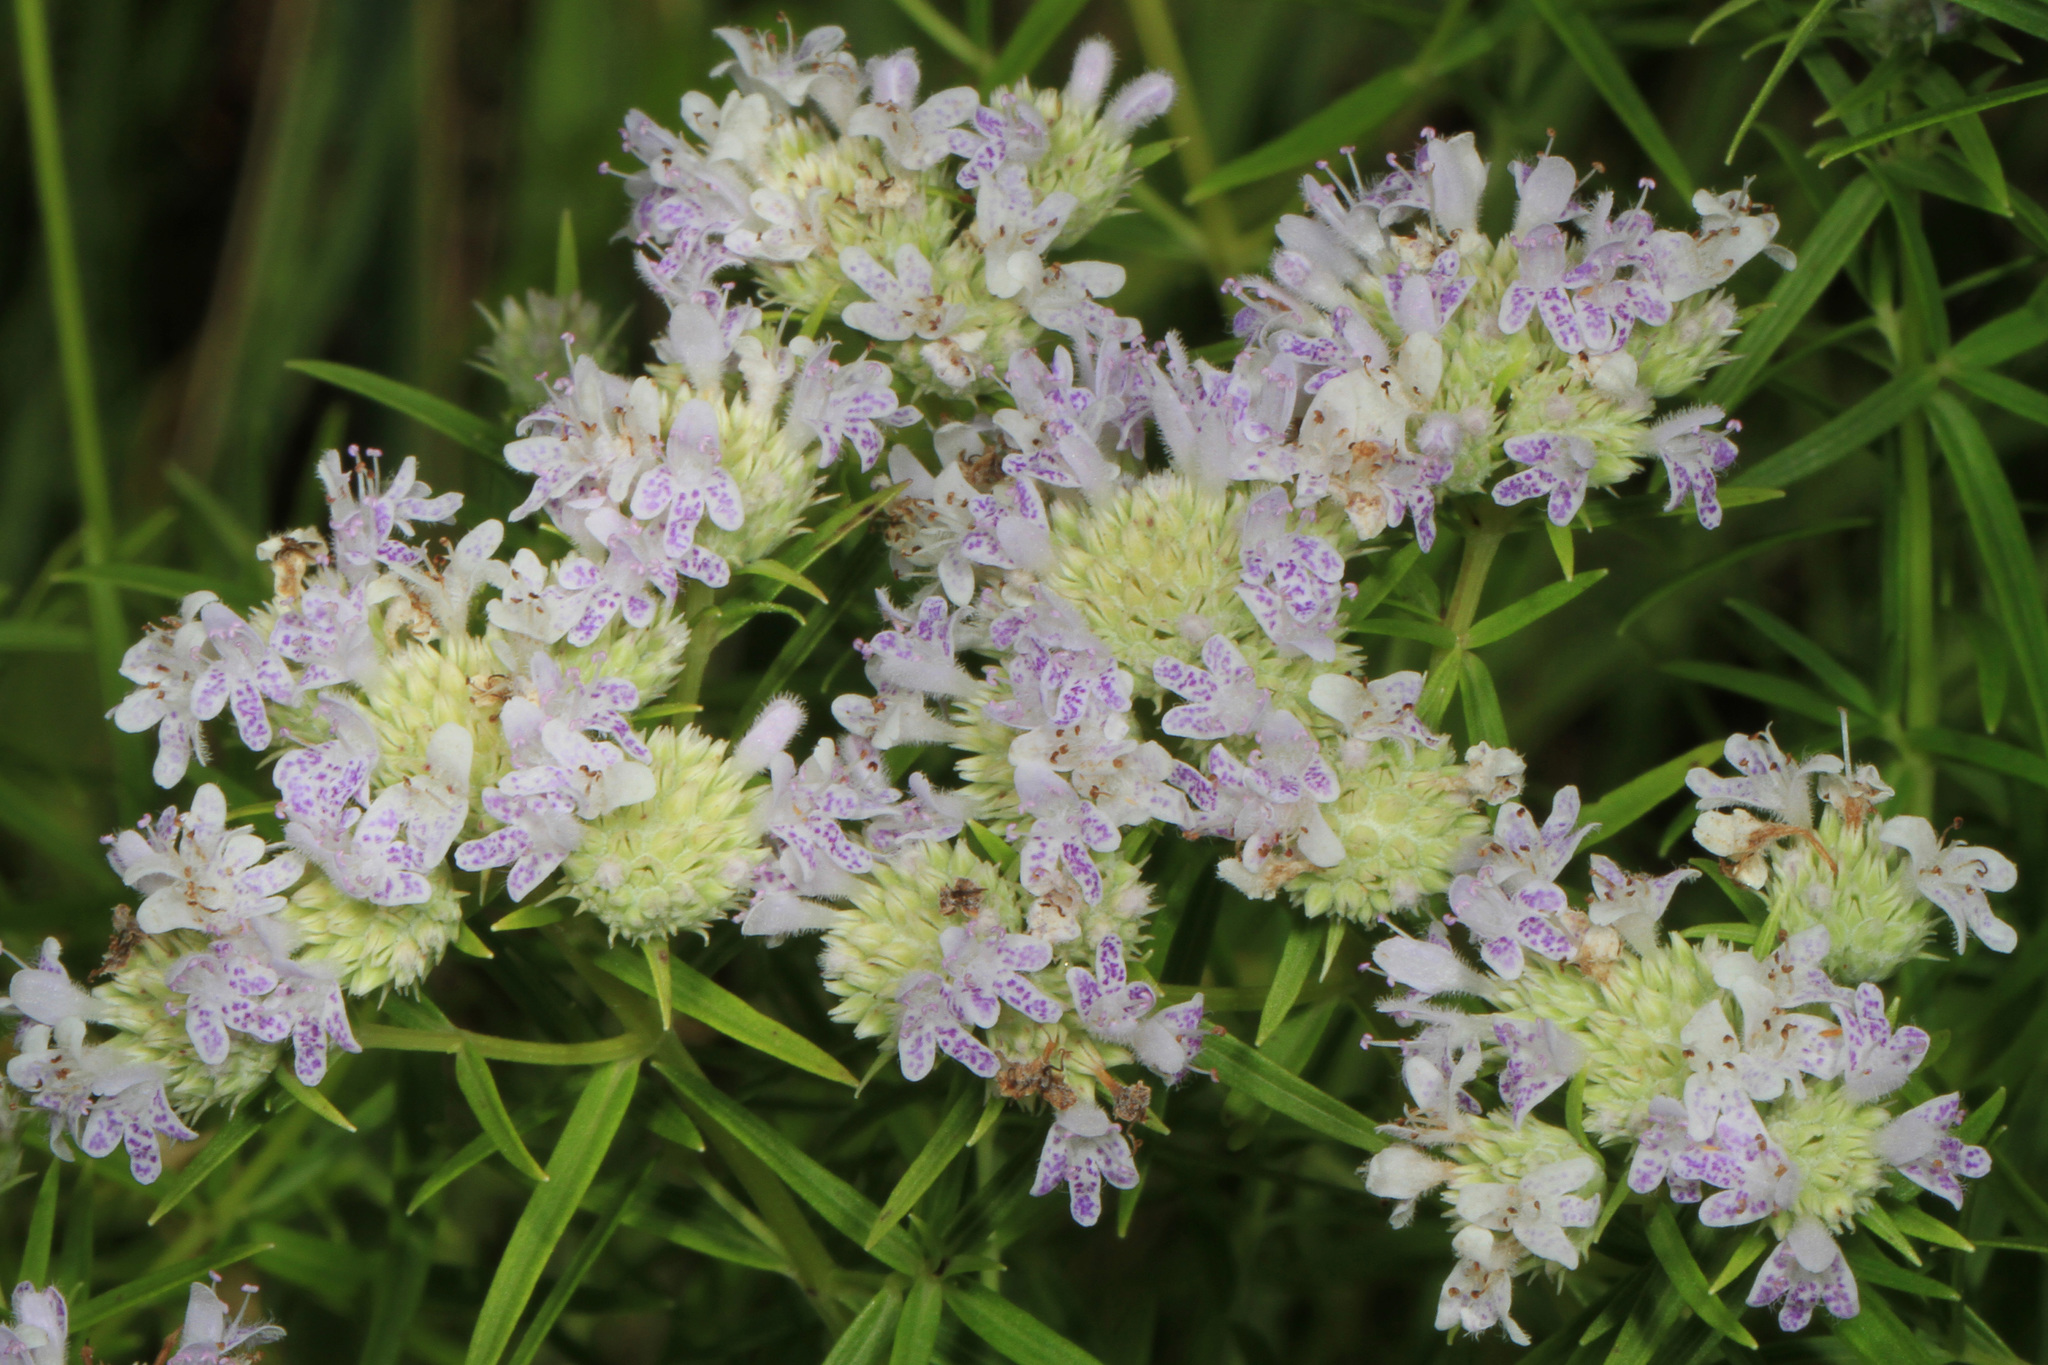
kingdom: Plantae
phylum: Tracheophyta
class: Magnoliopsida
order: Lamiales
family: Lamiaceae
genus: Pycnanthemum
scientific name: Pycnanthemum tenuifolium
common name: Narrow-leaf mountain-mint
